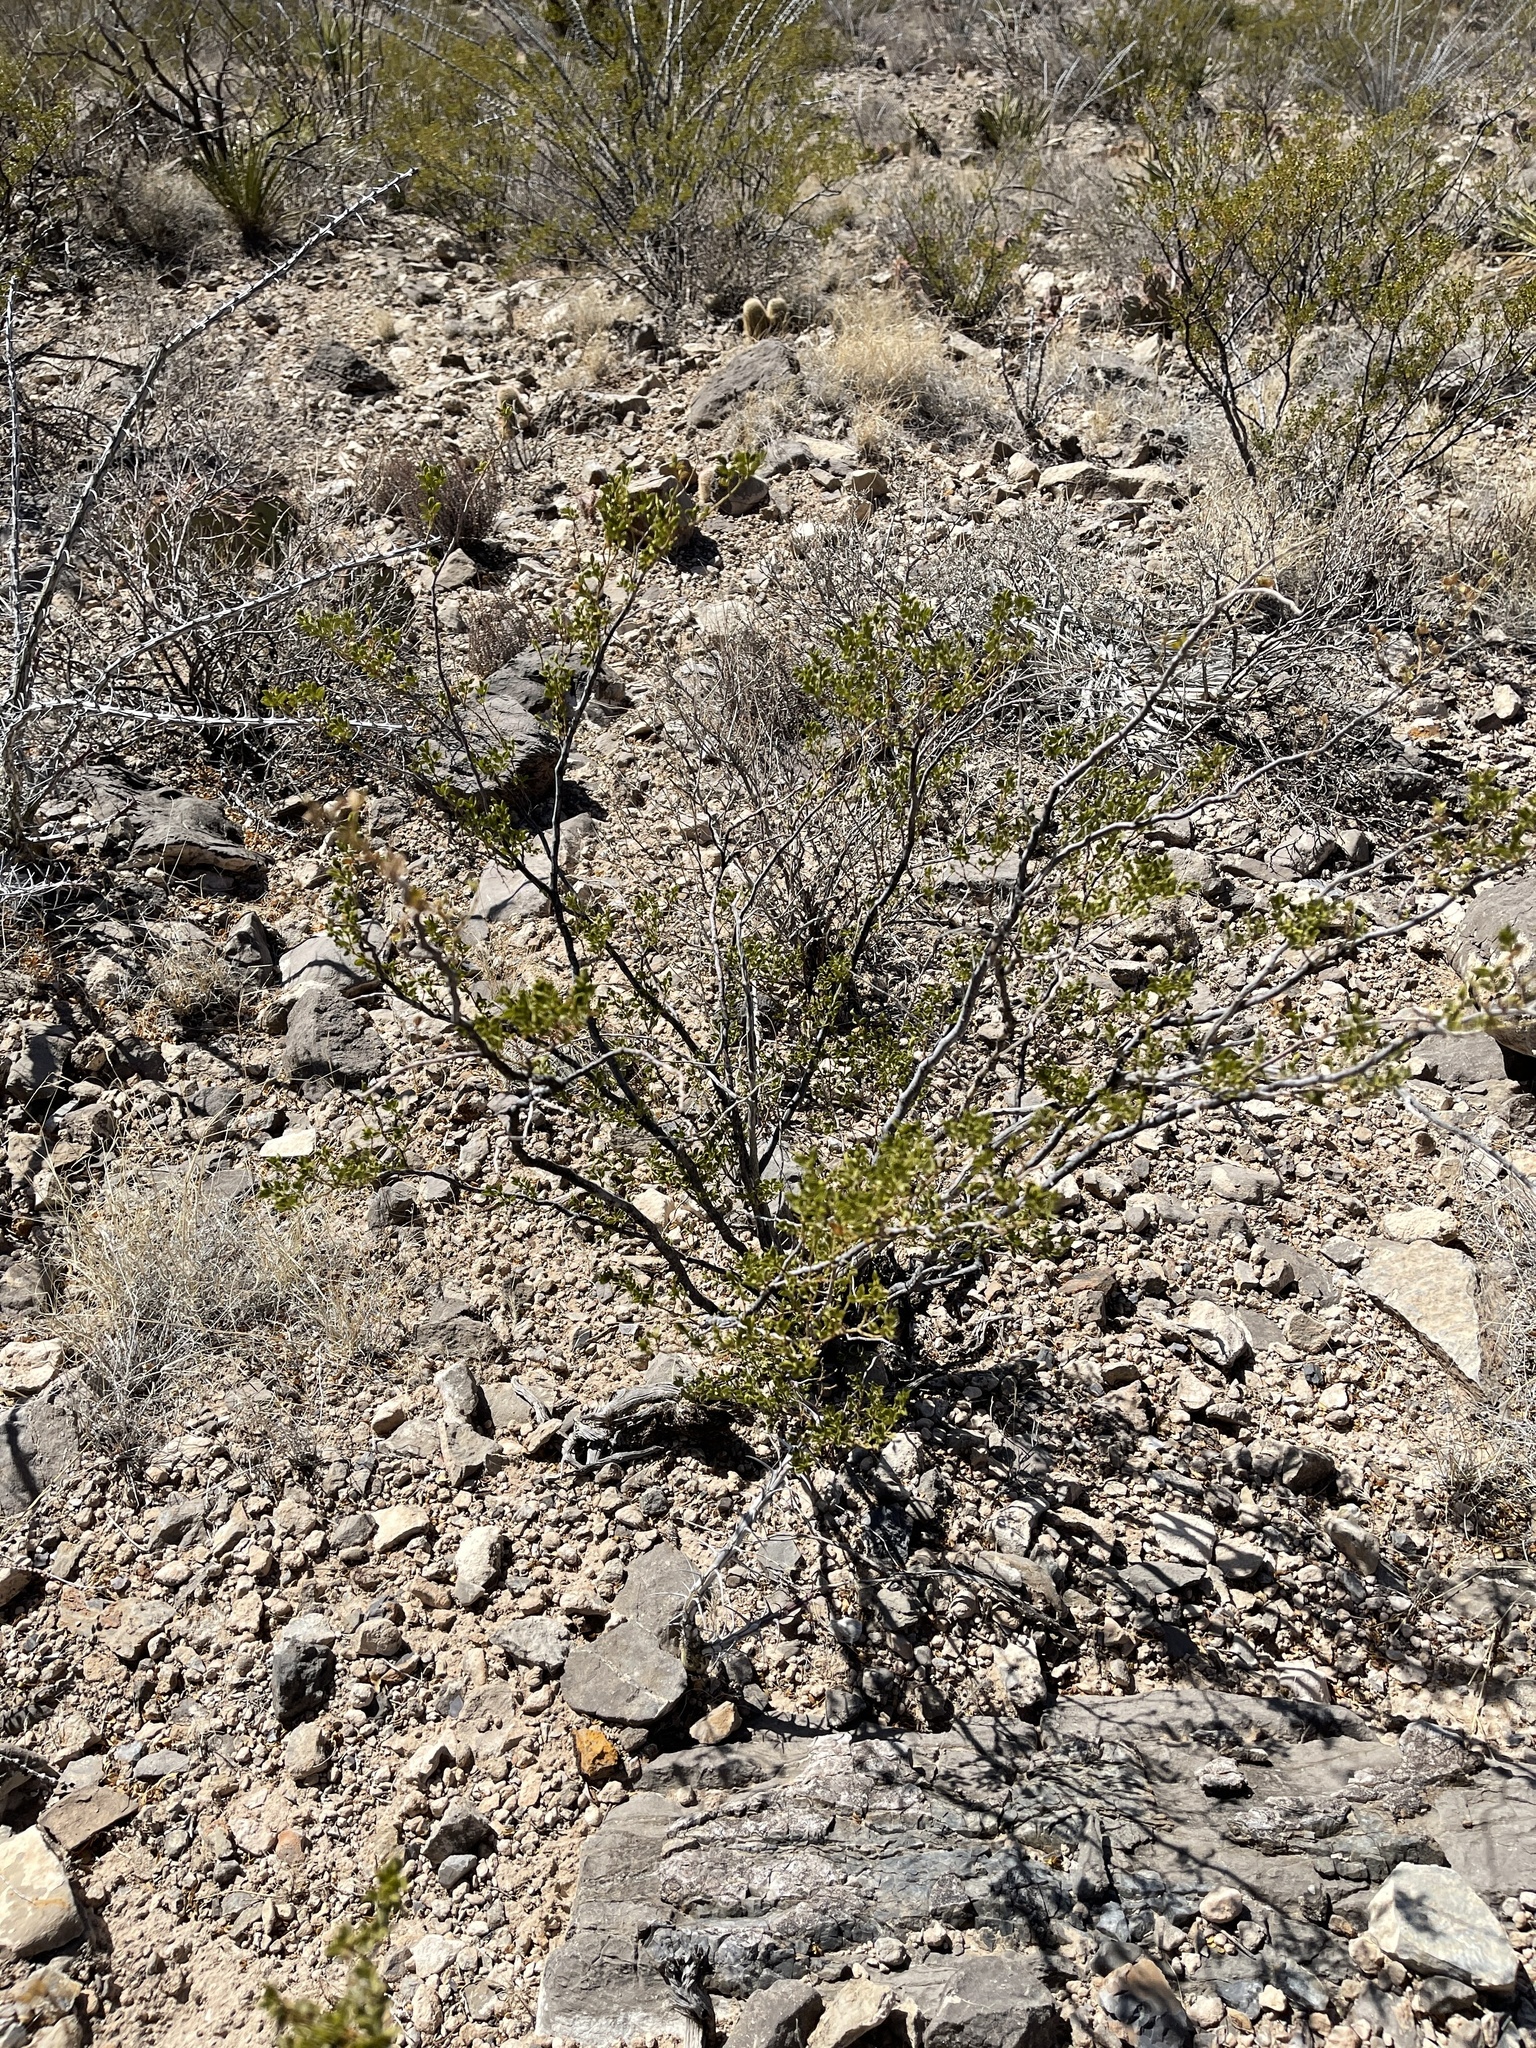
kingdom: Plantae
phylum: Tracheophyta
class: Magnoliopsida
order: Zygophyllales
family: Zygophyllaceae
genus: Larrea
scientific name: Larrea tridentata
